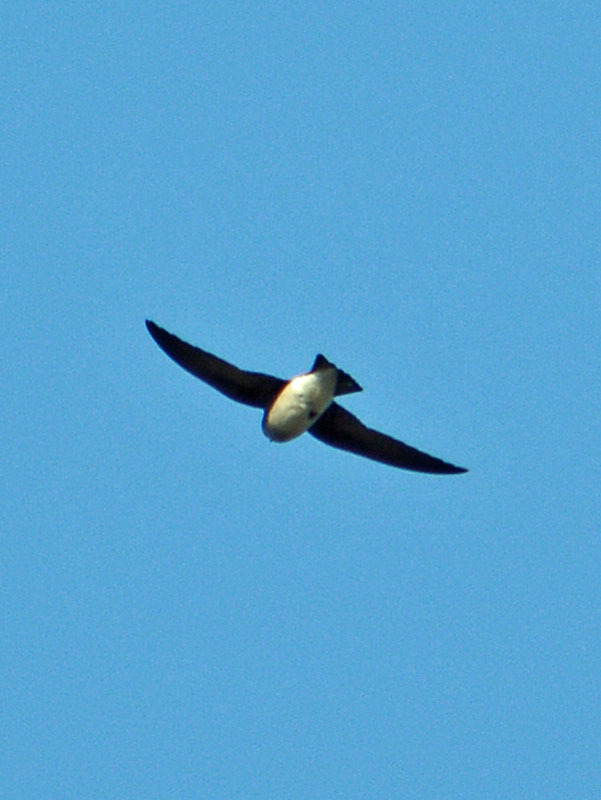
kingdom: Animalia
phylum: Chordata
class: Aves
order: Passeriformes
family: Hirundinidae
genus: Tachycineta
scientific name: Tachycineta bicolor
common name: Tree swallow
